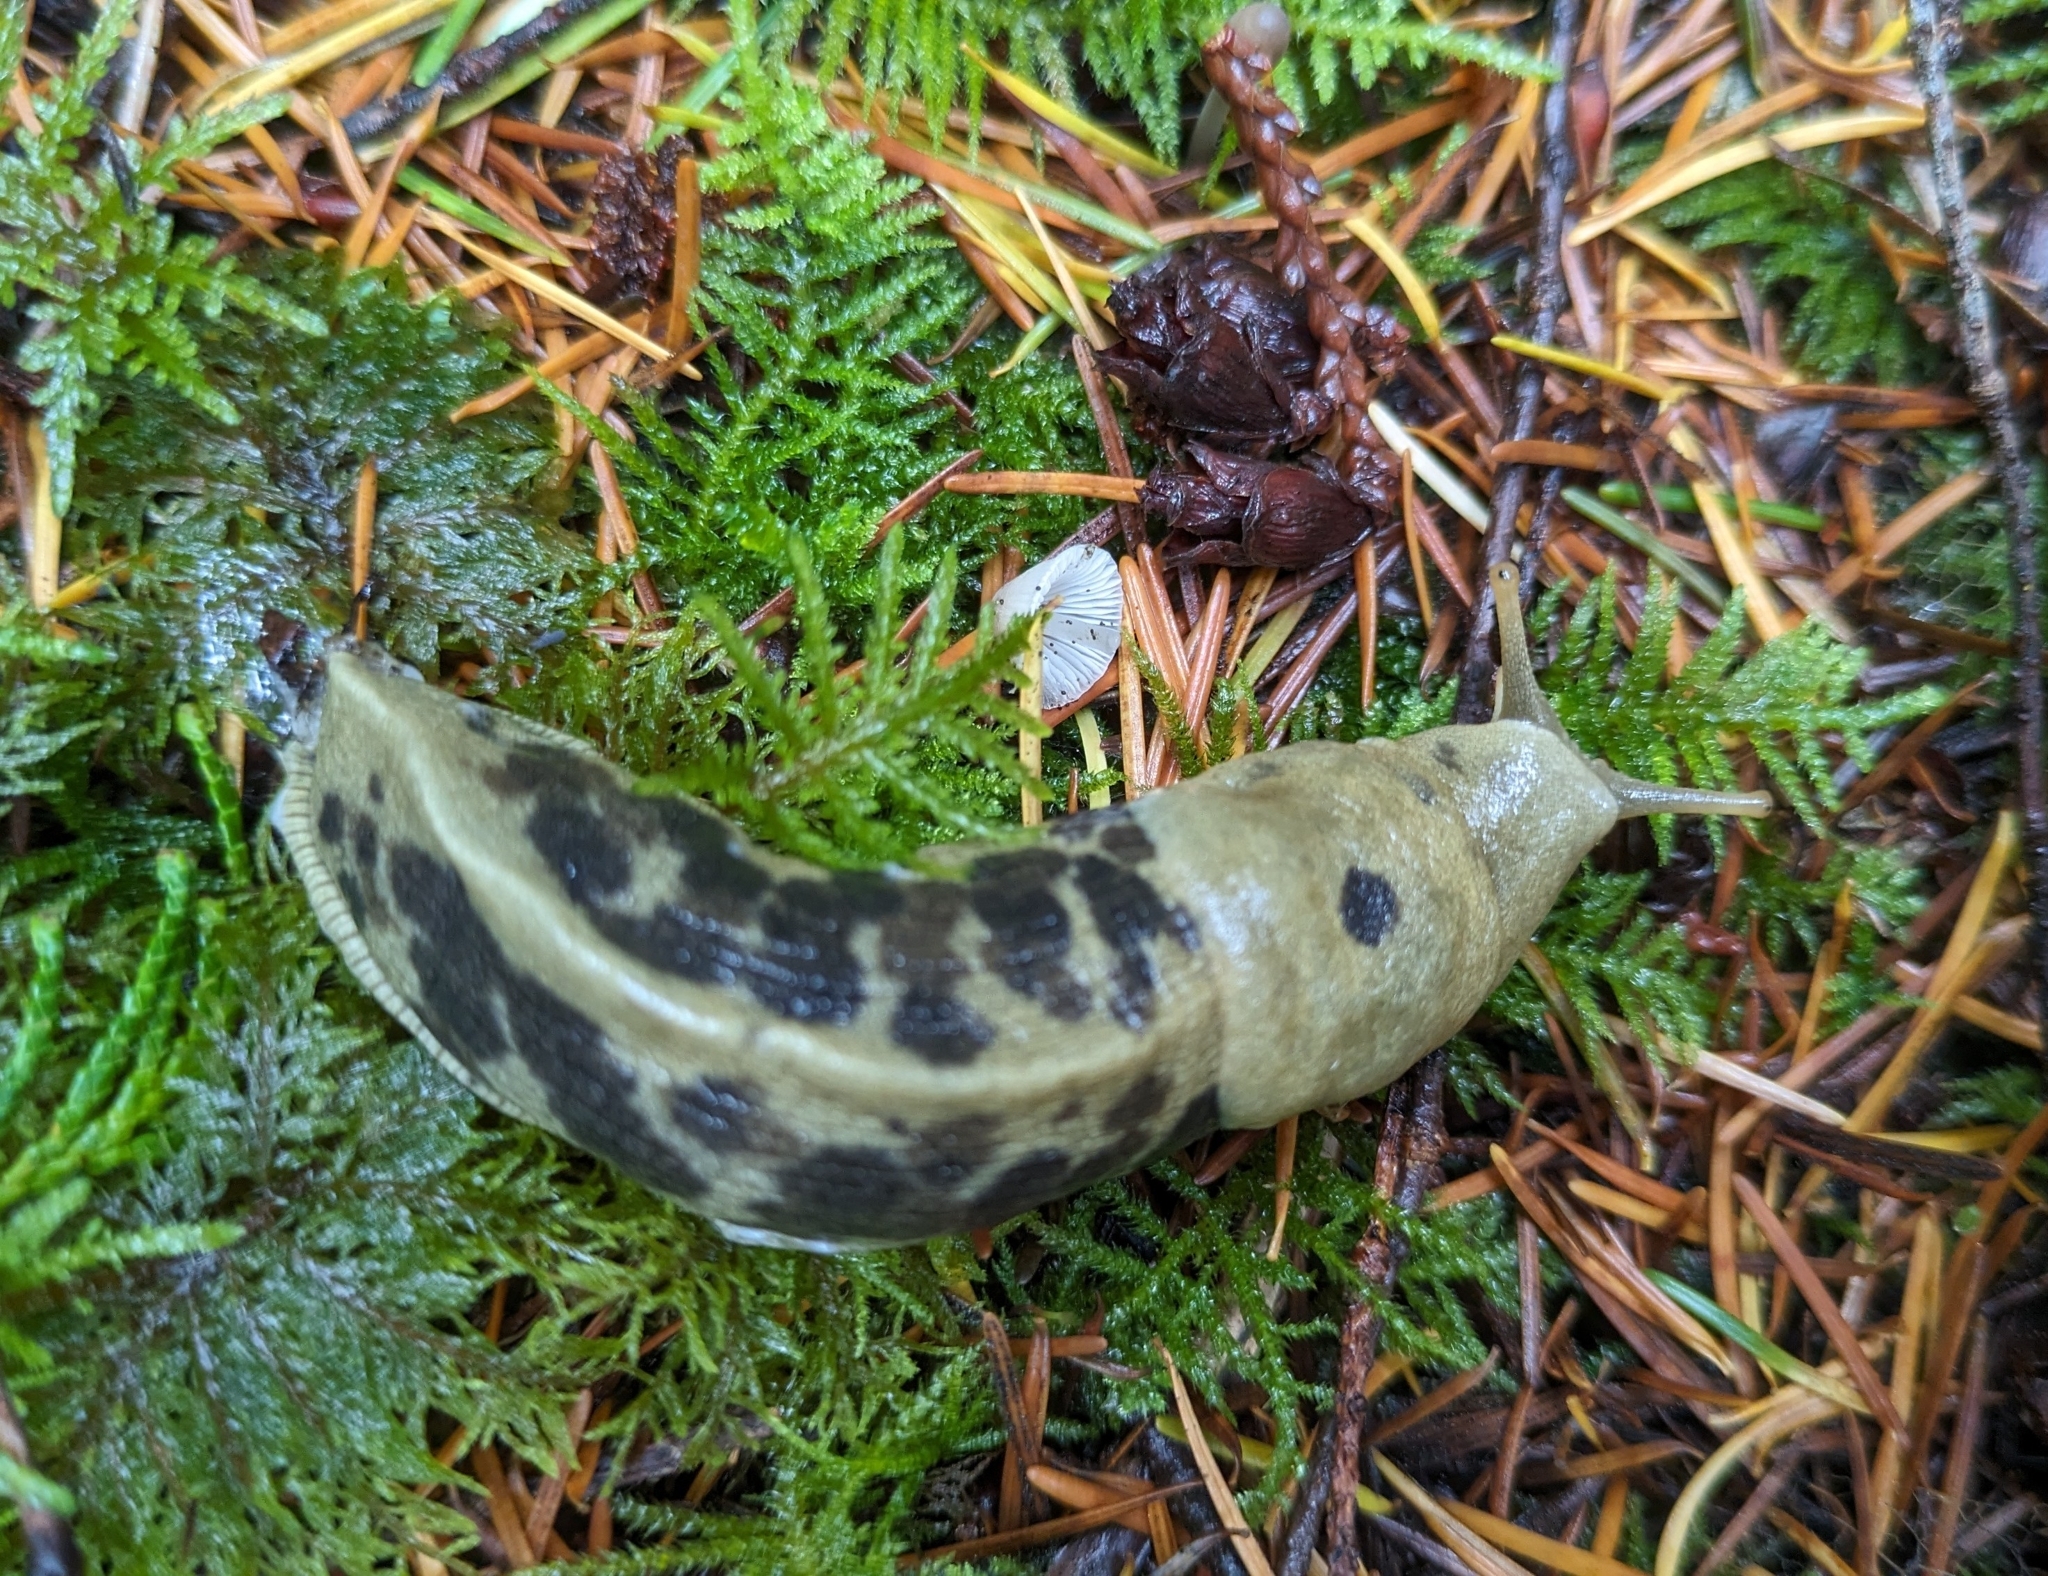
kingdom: Animalia
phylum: Mollusca
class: Gastropoda
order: Stylommatophora
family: Ariolimacidae
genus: Ariolimax
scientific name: Ariolimax columbianus
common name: Pacific banana slug
